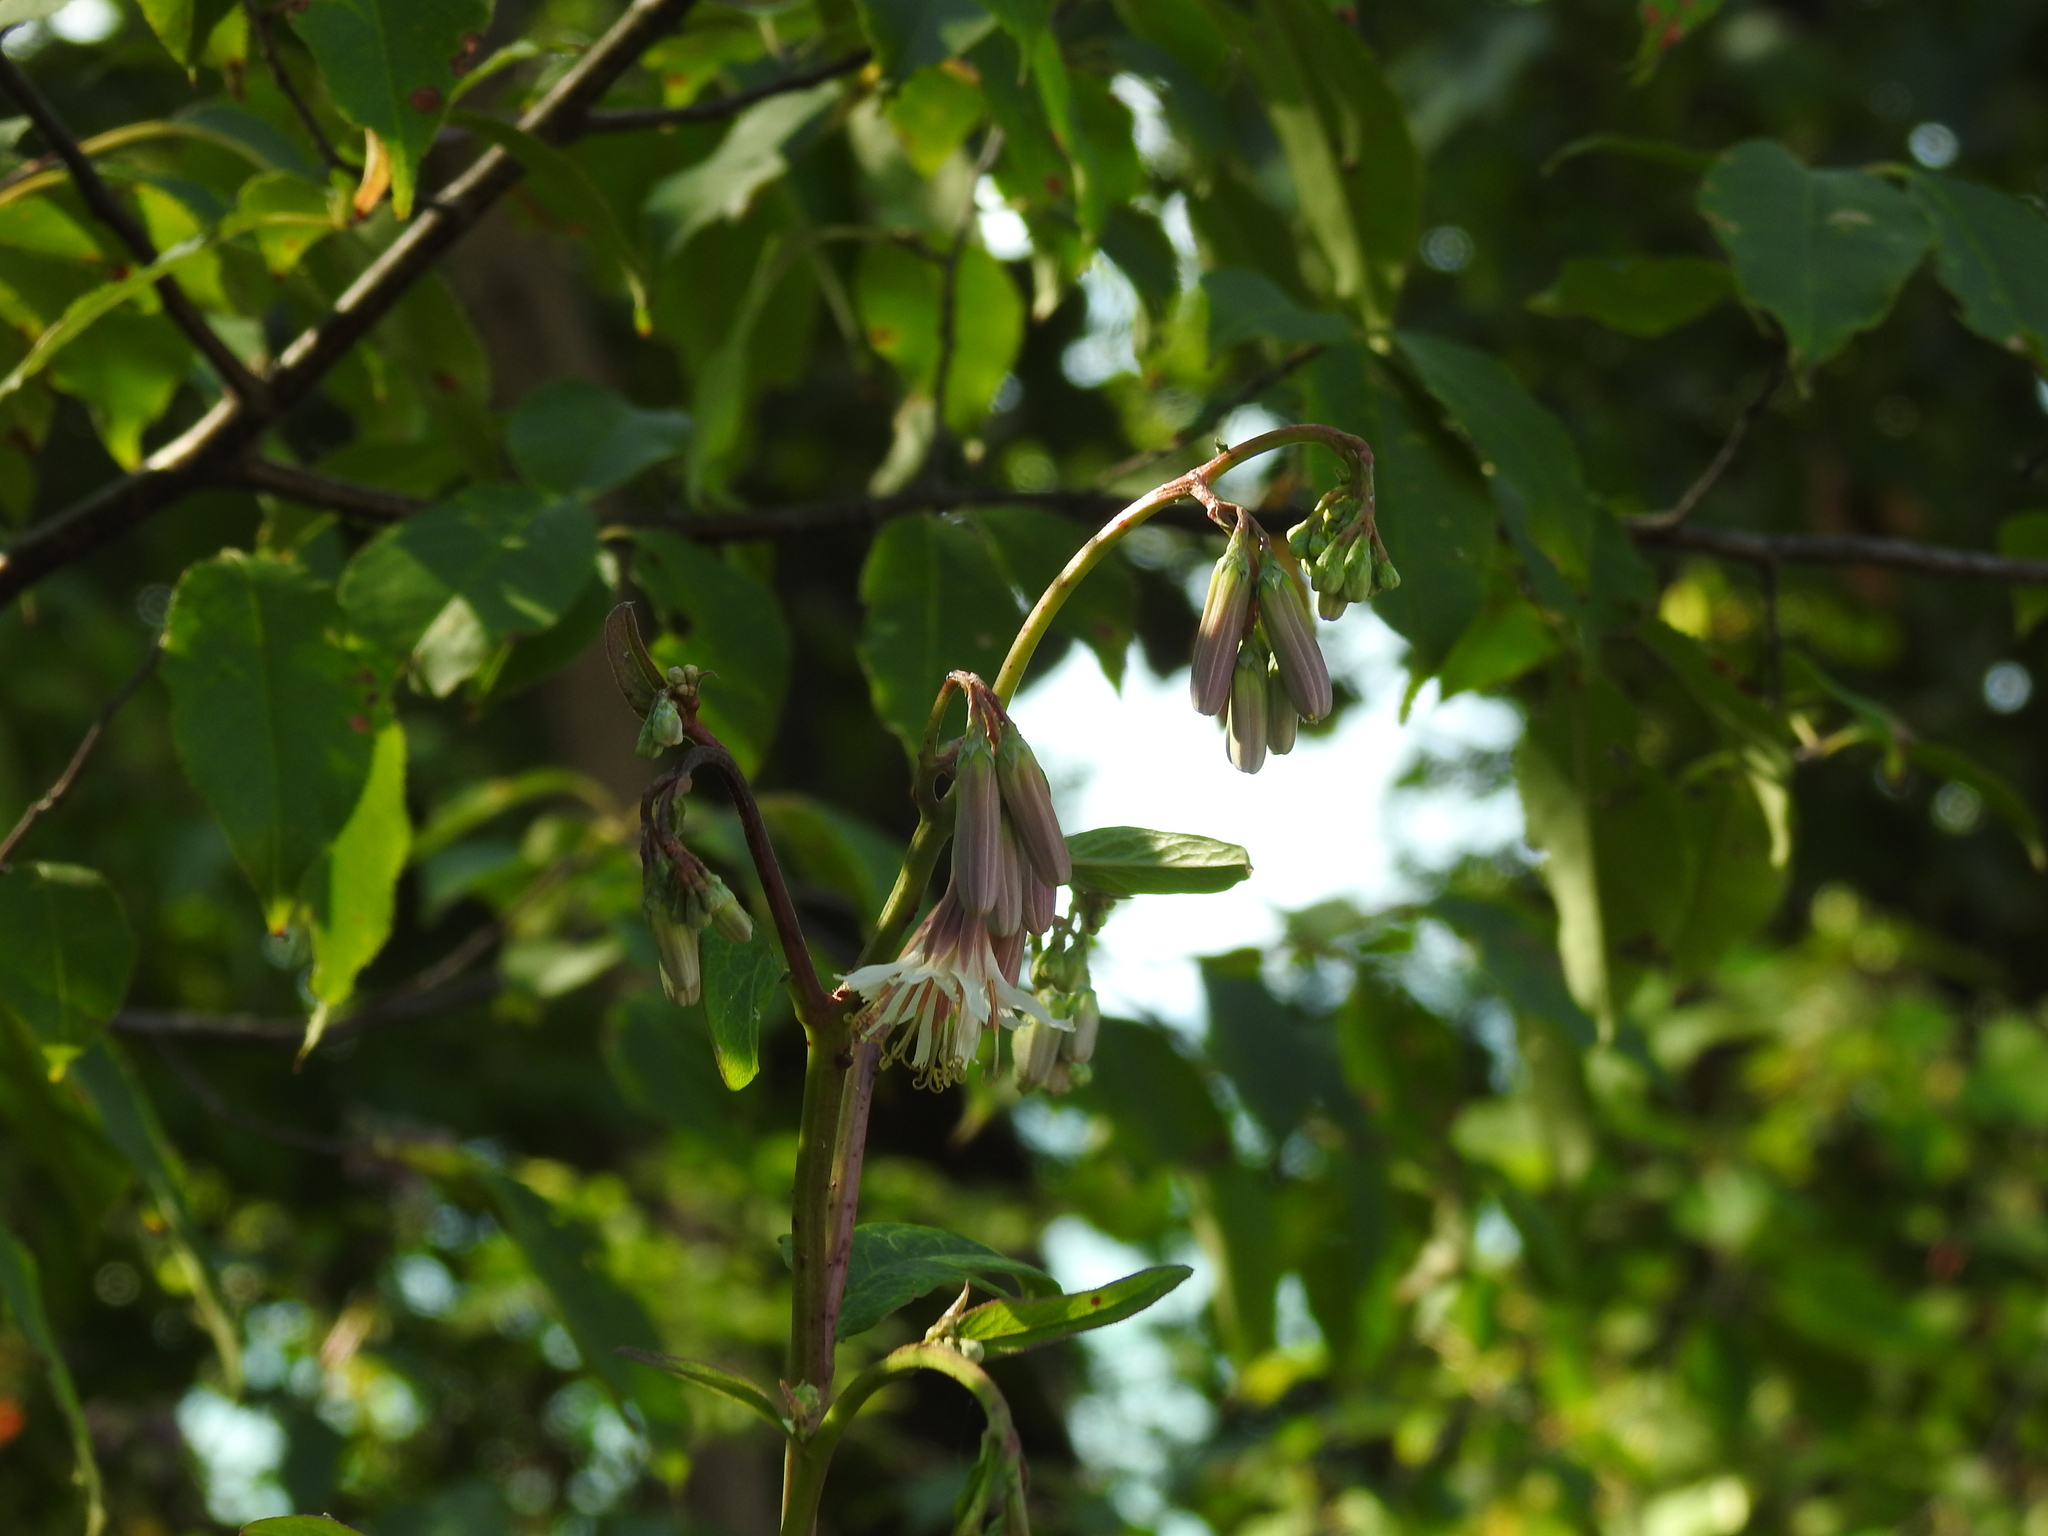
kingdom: Plantae
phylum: Tracheophyta
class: Magnoliopsida
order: Asterales
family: Asteraceae
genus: Nabalus
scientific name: Nabalus albus
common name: White rattlesnakeroot
